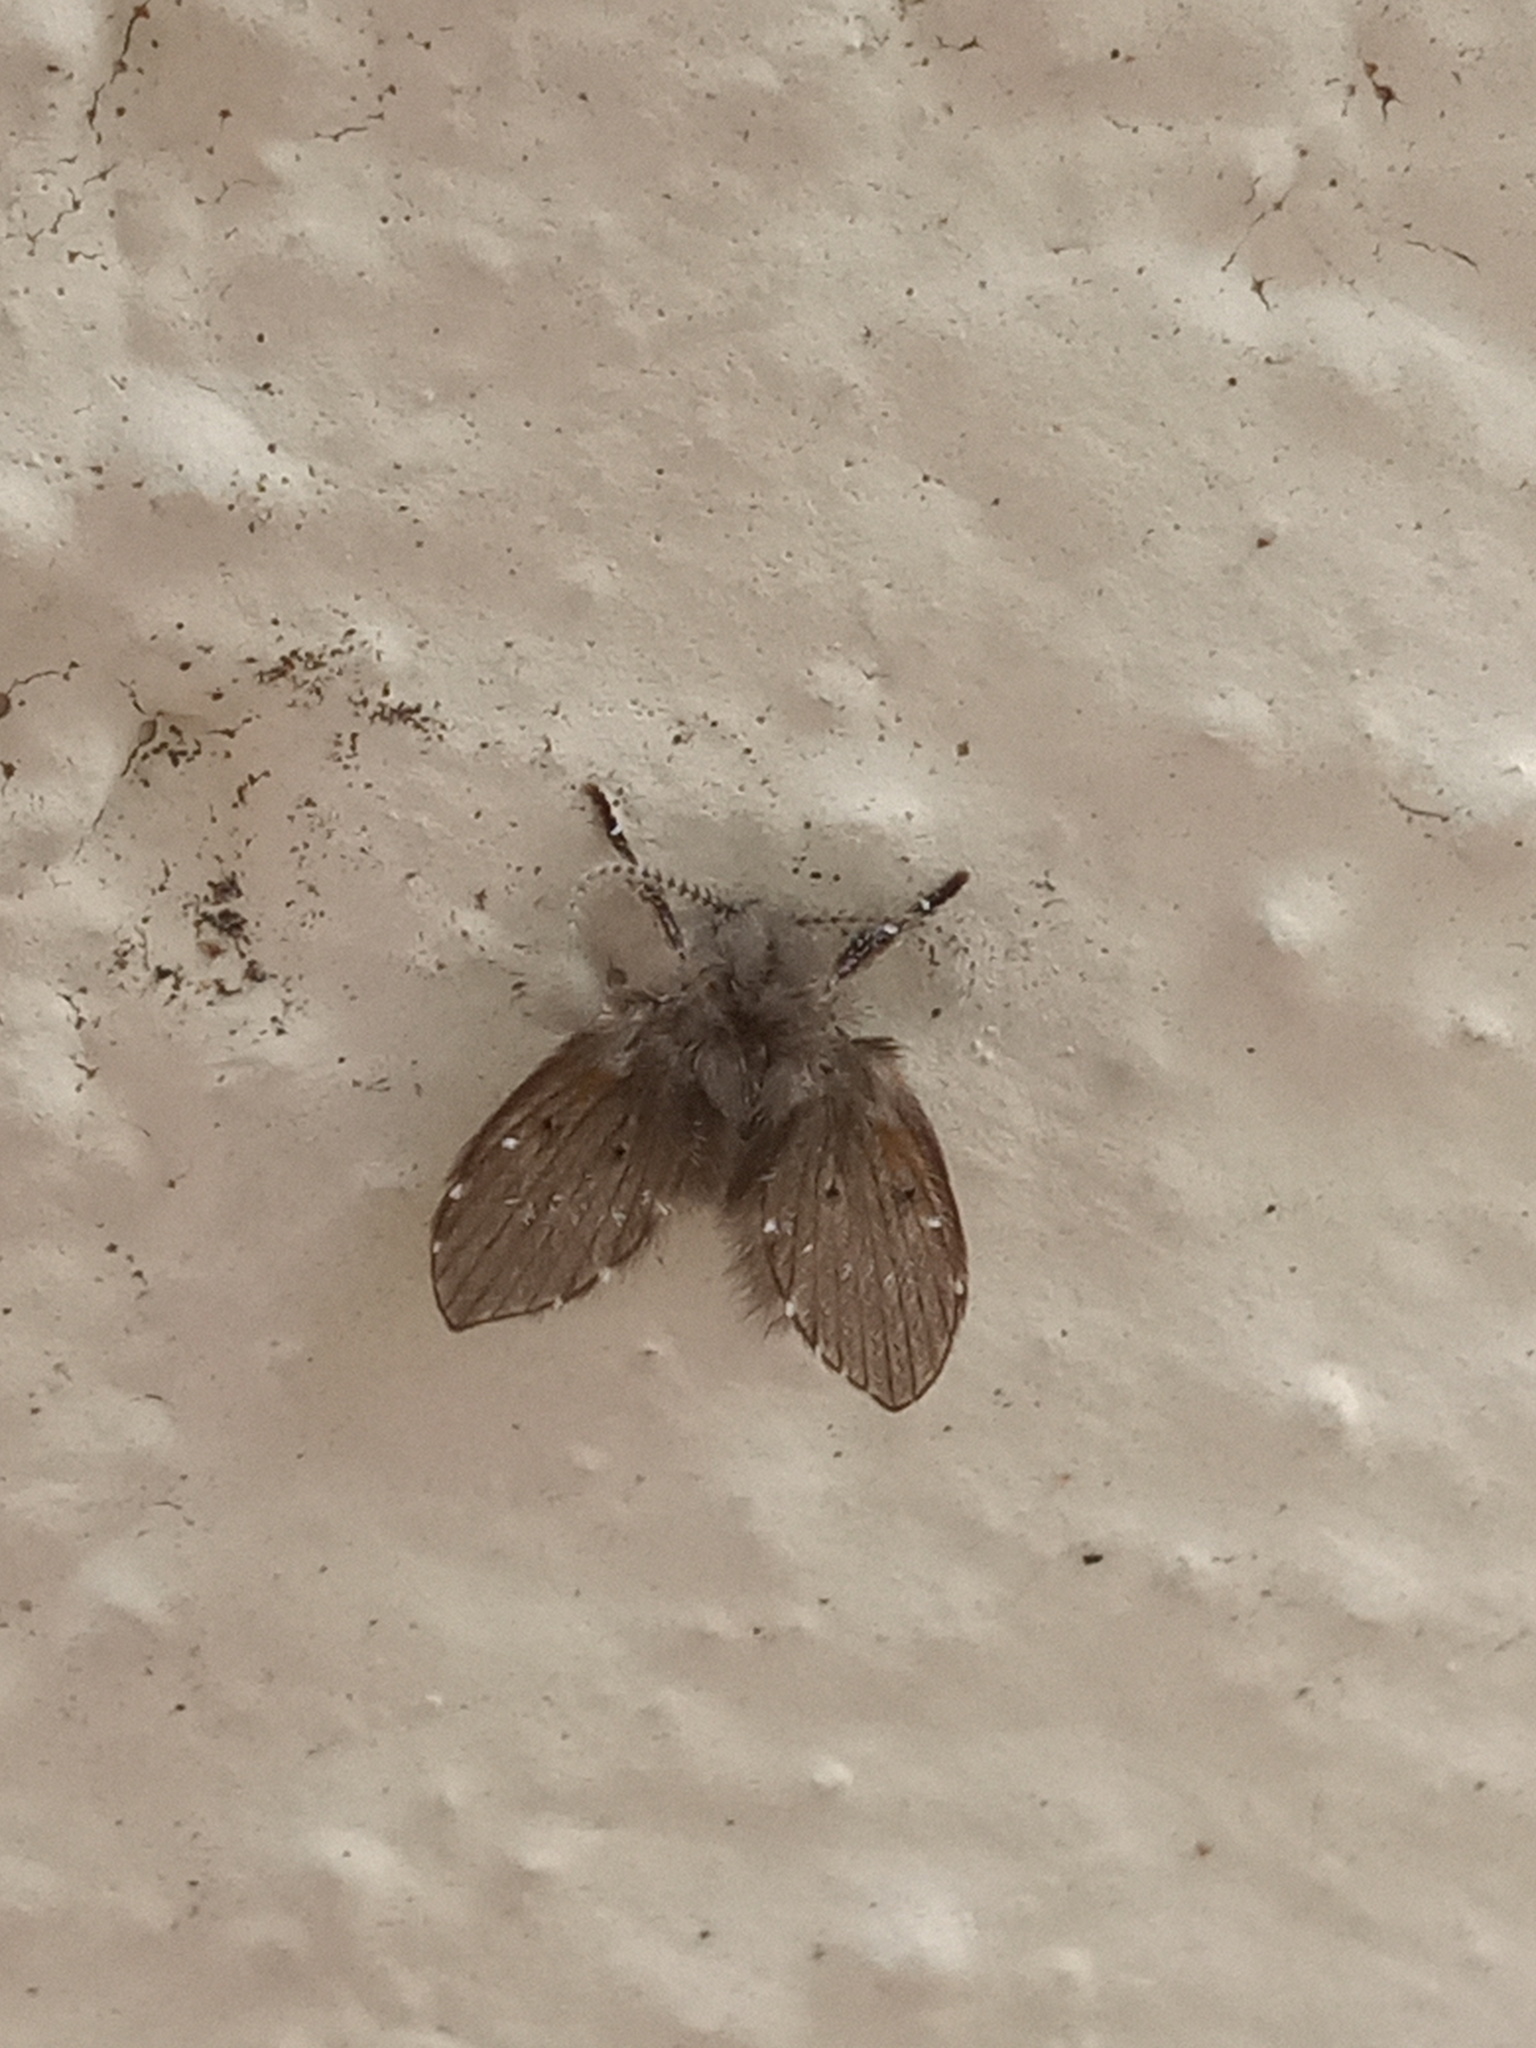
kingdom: Animalia
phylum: Arthropoda
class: Insecta
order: Diptera
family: Psychodidae
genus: Clogmia
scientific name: Clogmia albipunctatus
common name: White-spotted moth fly
